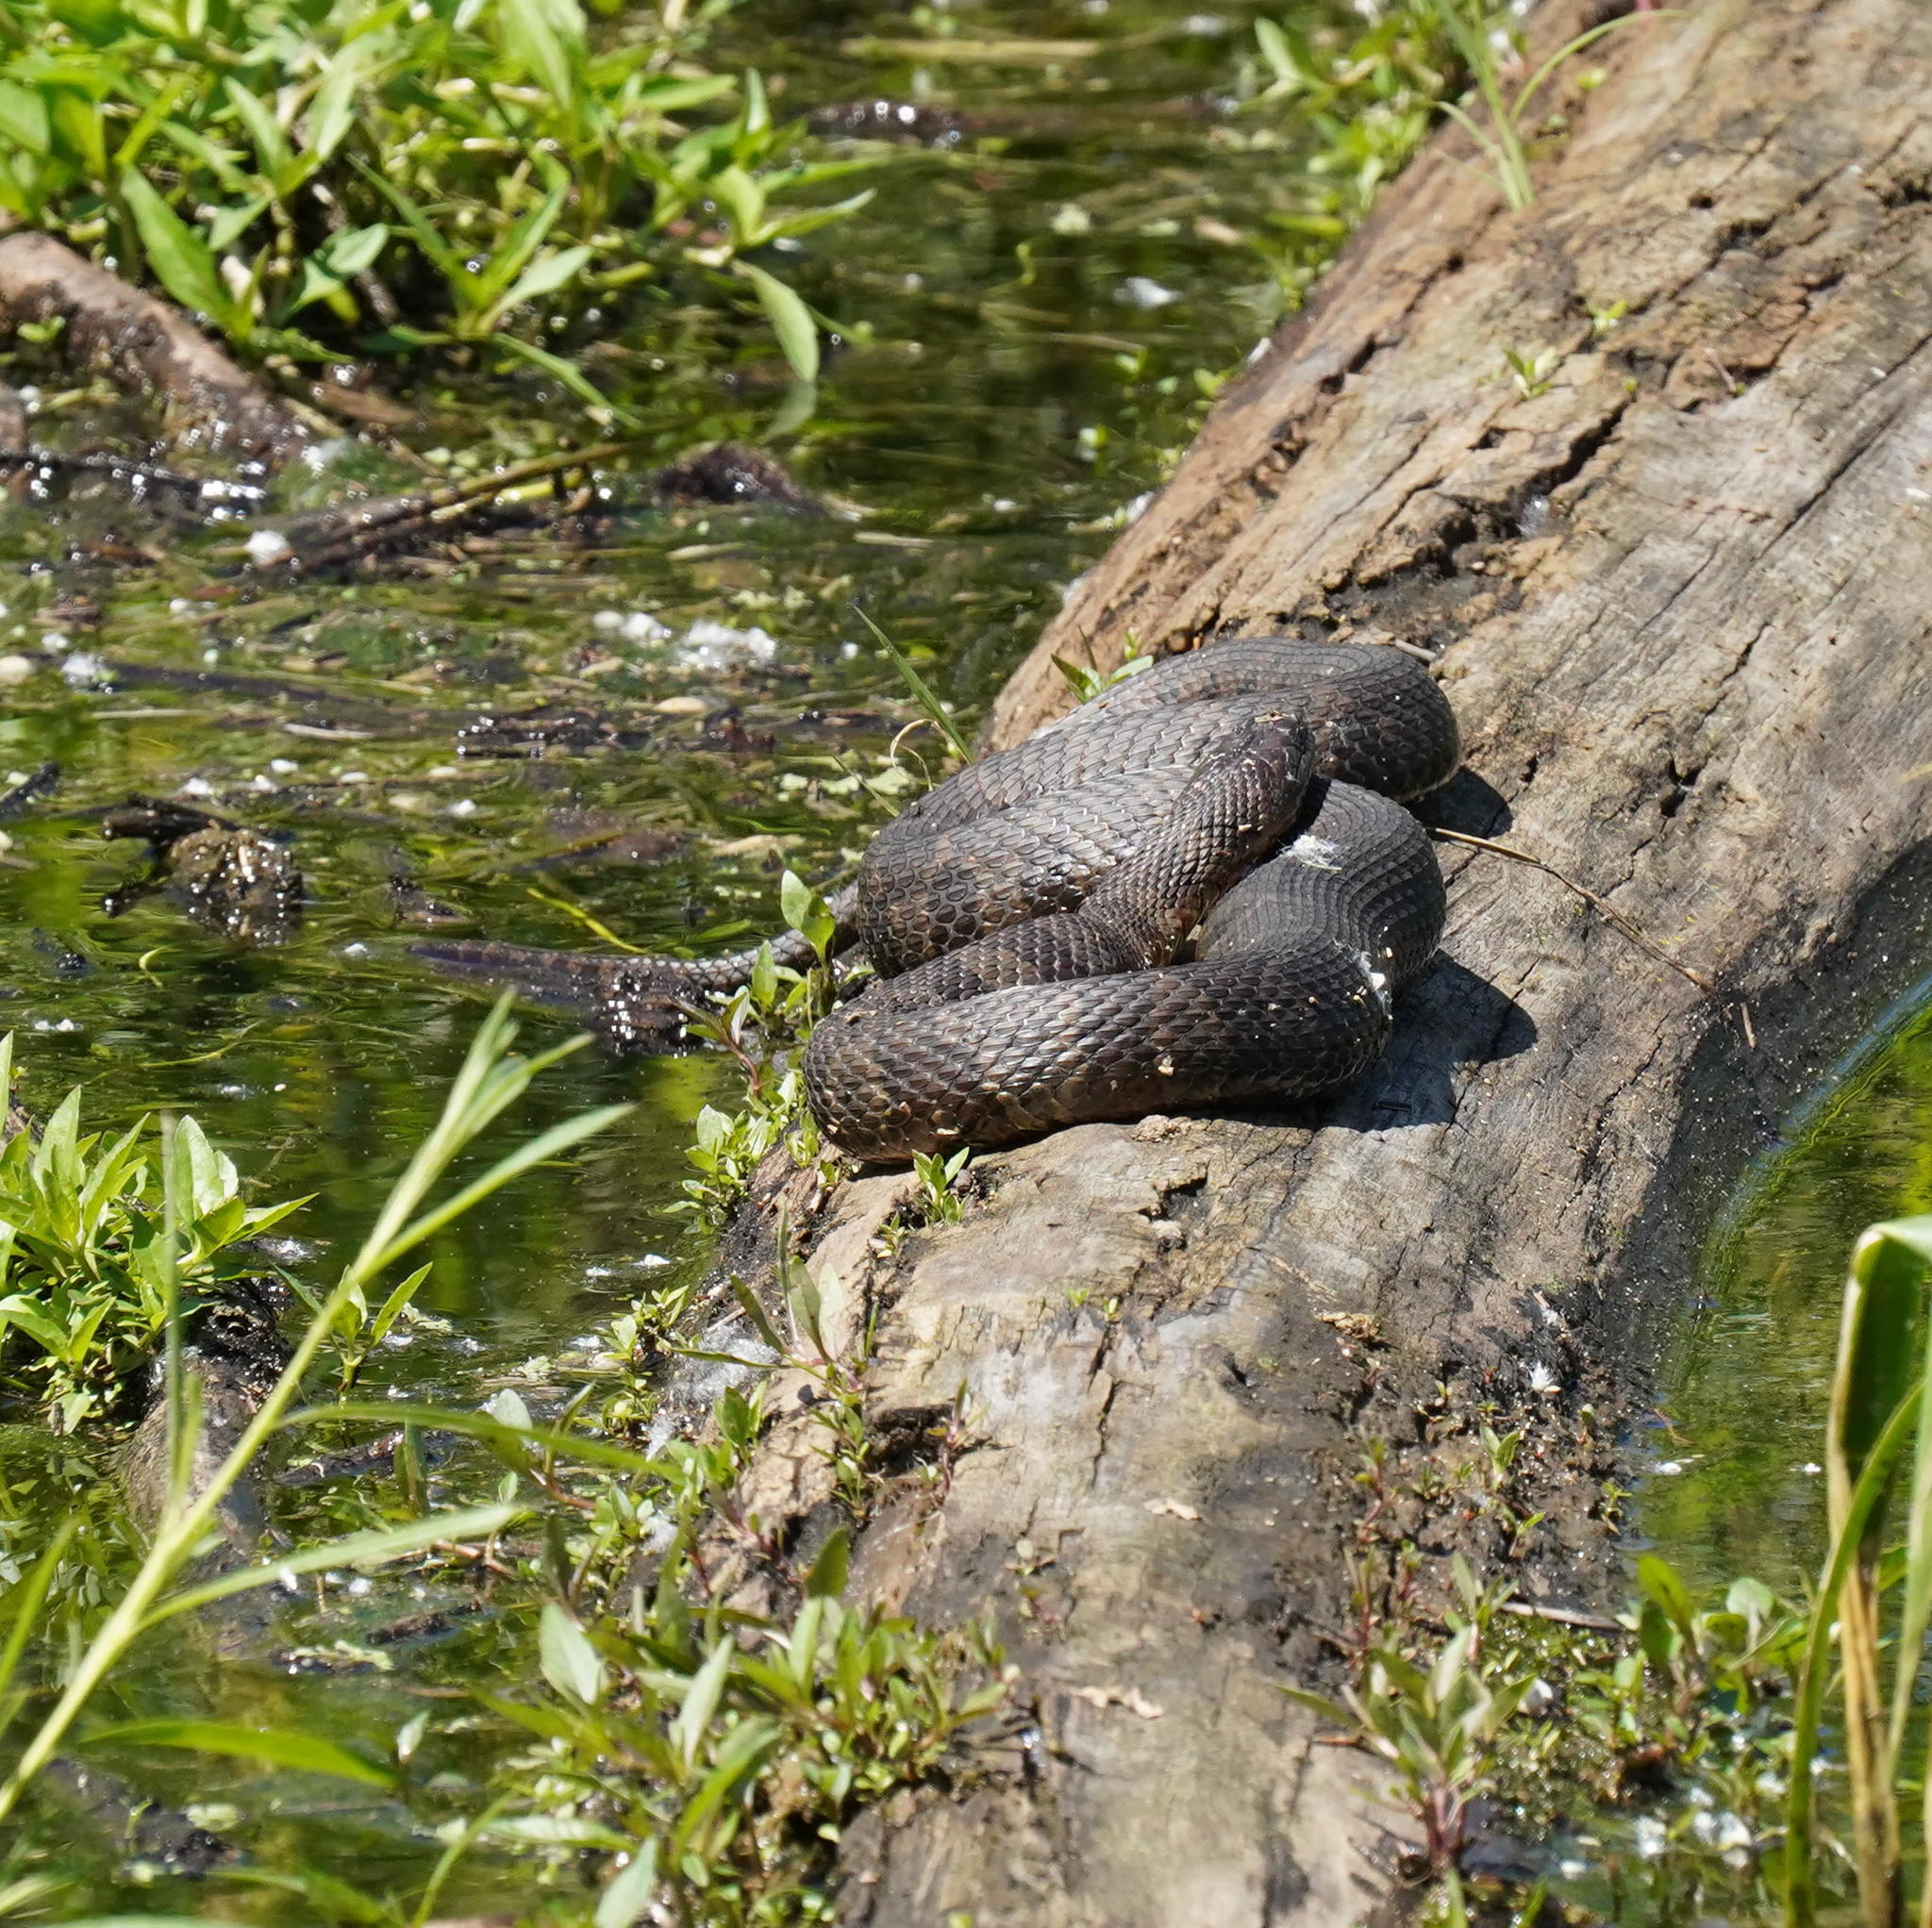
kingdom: Animalia
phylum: Chordata
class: Squamata
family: Colubridae
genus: Nerodia
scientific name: Nerodia sipedon
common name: Northern water snake
